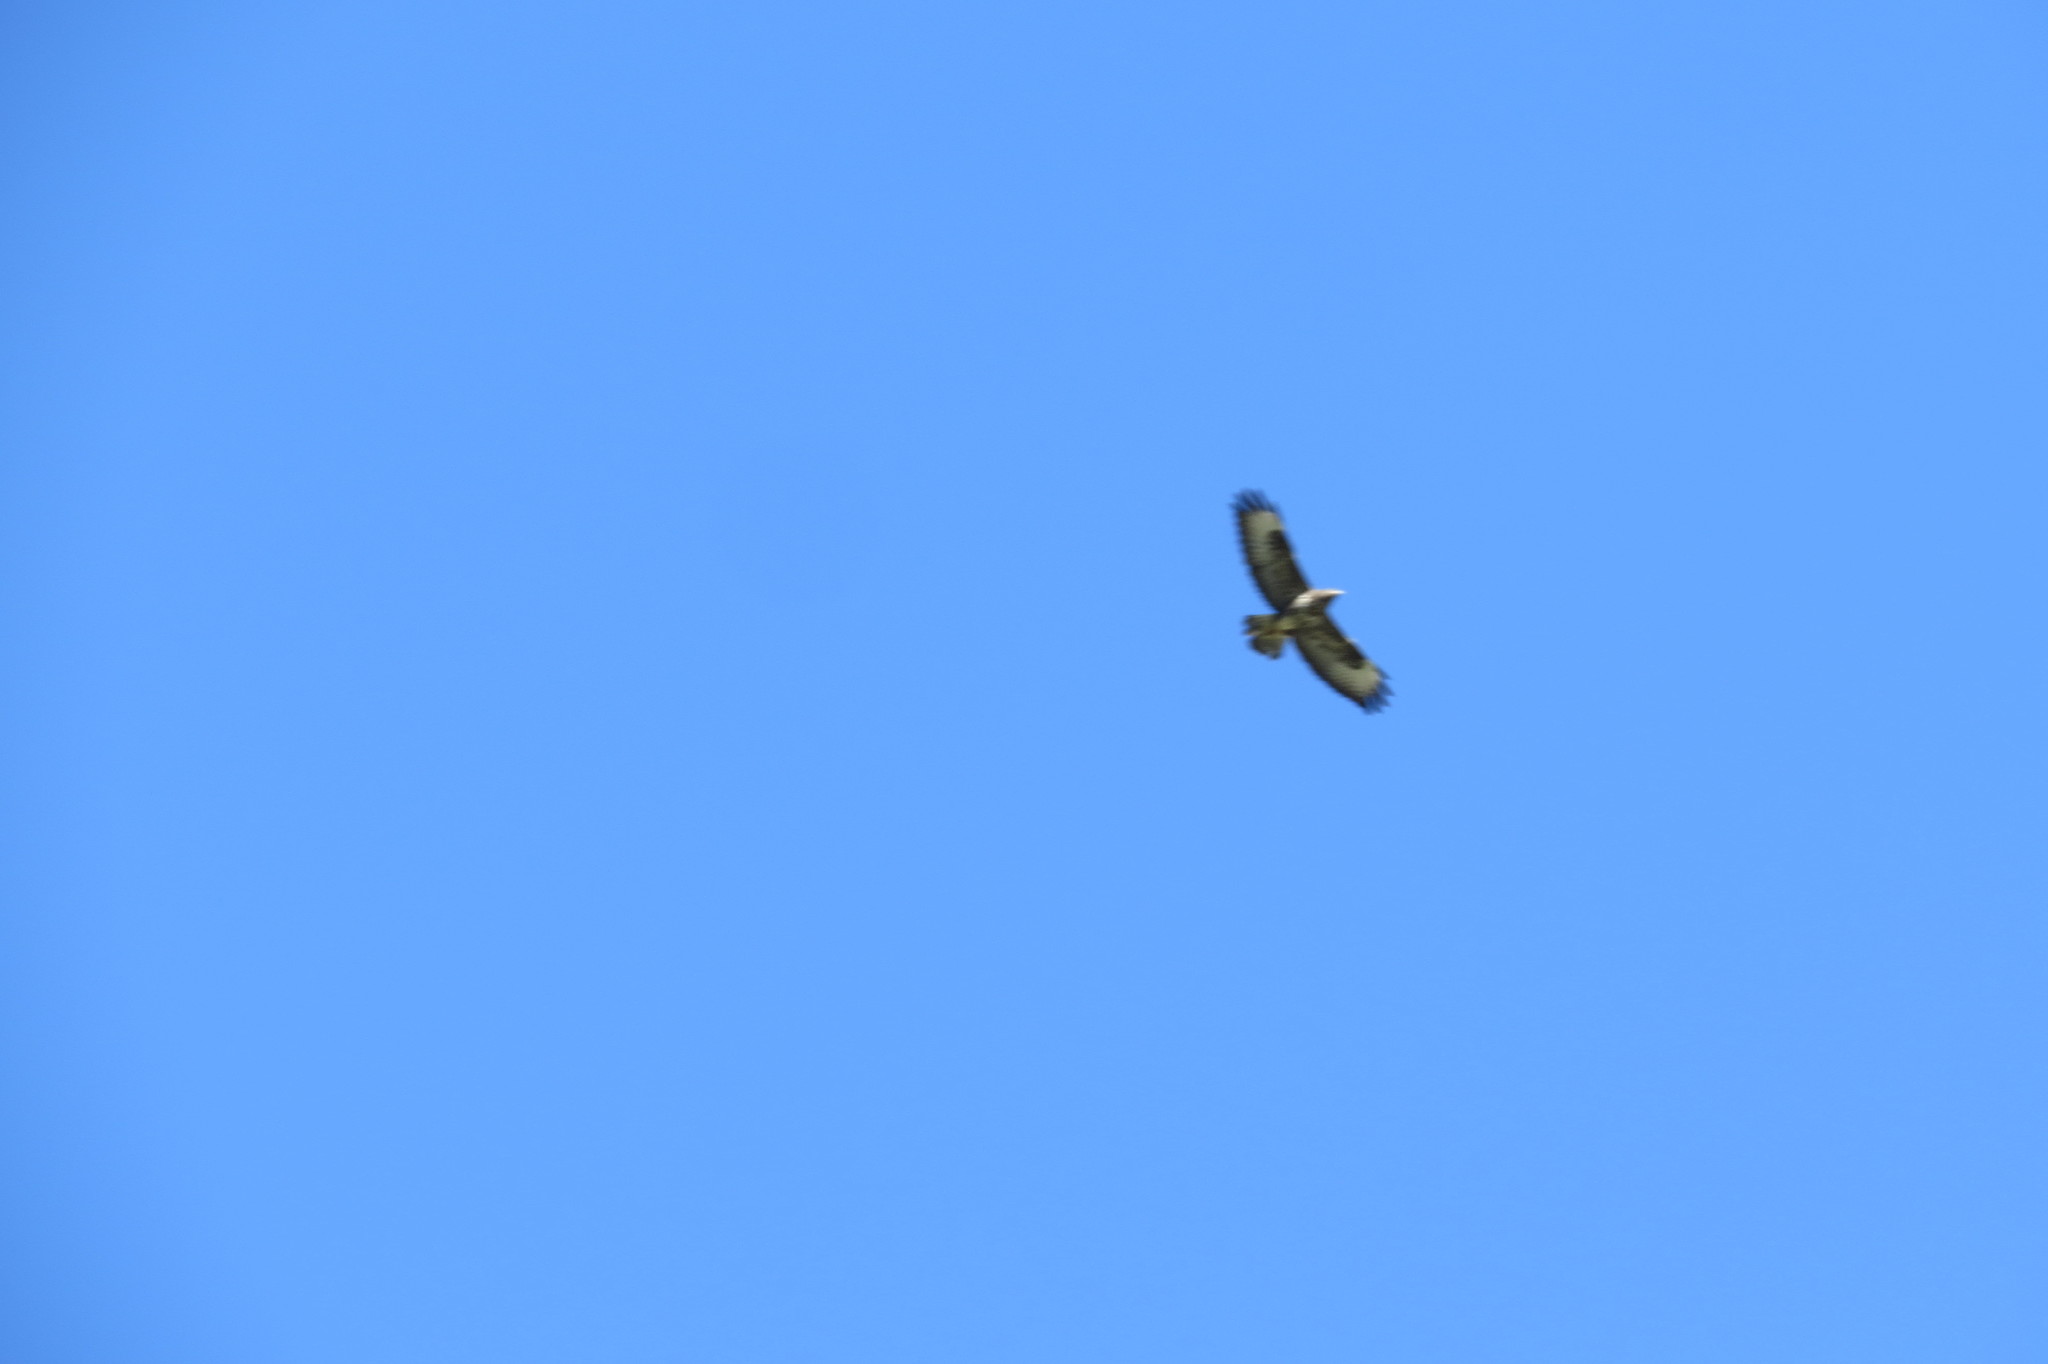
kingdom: Animalia
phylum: Chordata
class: Aves
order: Accipitriformes
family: Accipitridae
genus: Buteo
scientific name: Buteo buteo
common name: Common buzzard
